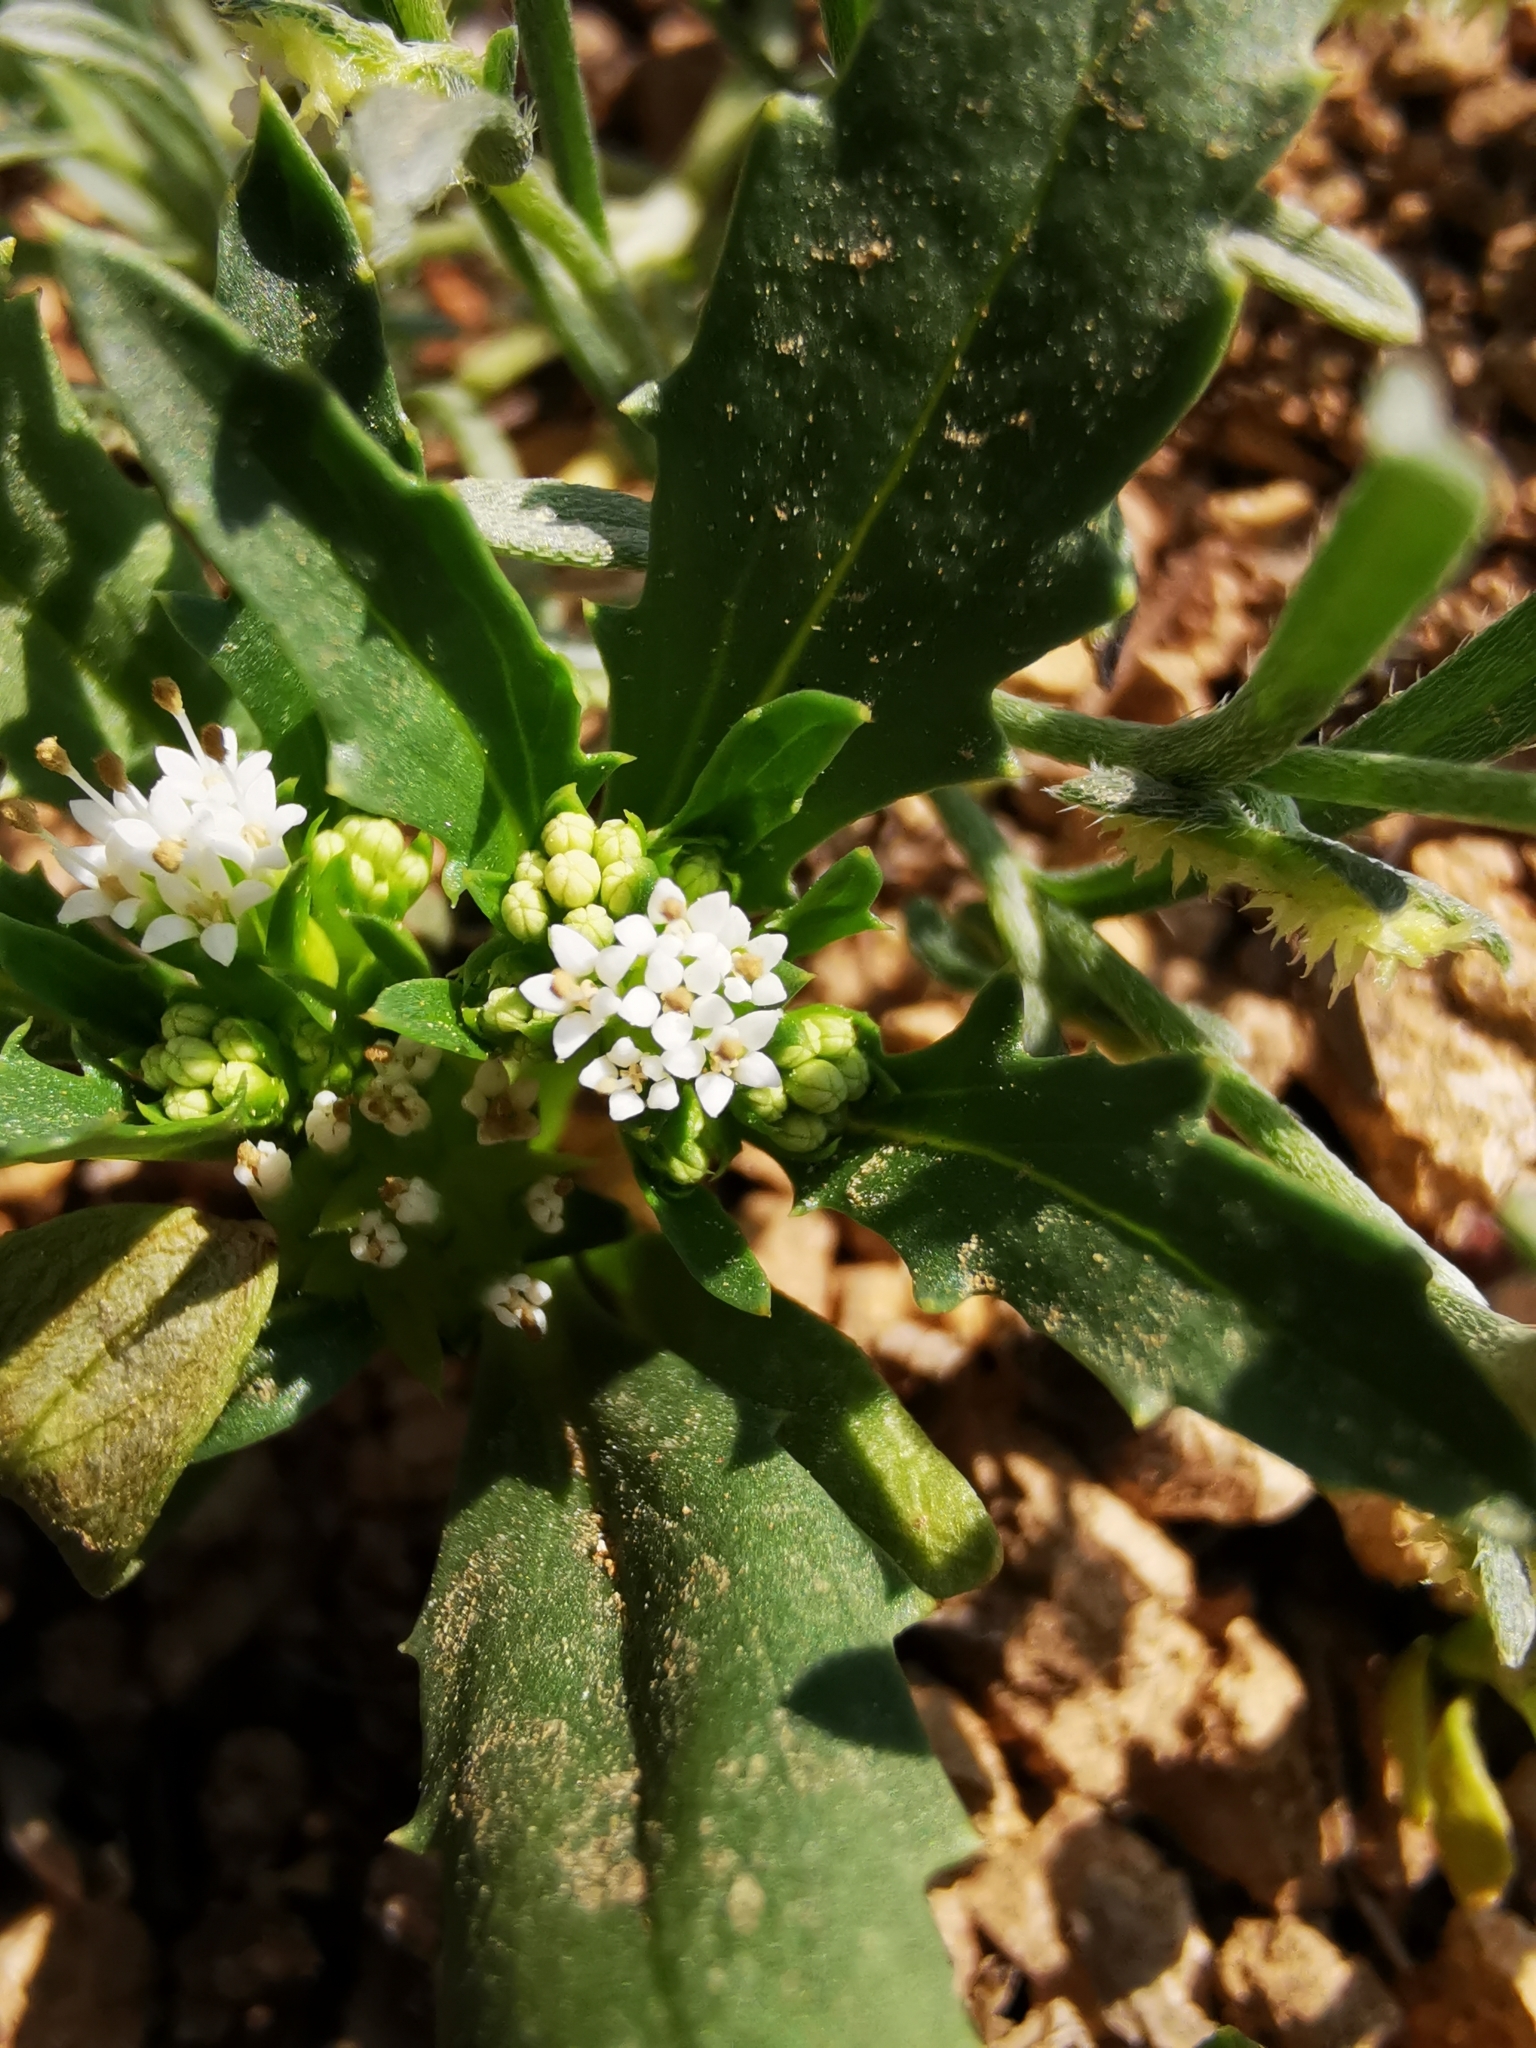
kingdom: Plantae
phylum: Tracheophyta
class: Magnoliopsida
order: Asterales
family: Calyceraceae
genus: Leucocera
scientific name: Leucocera sessiliflora
